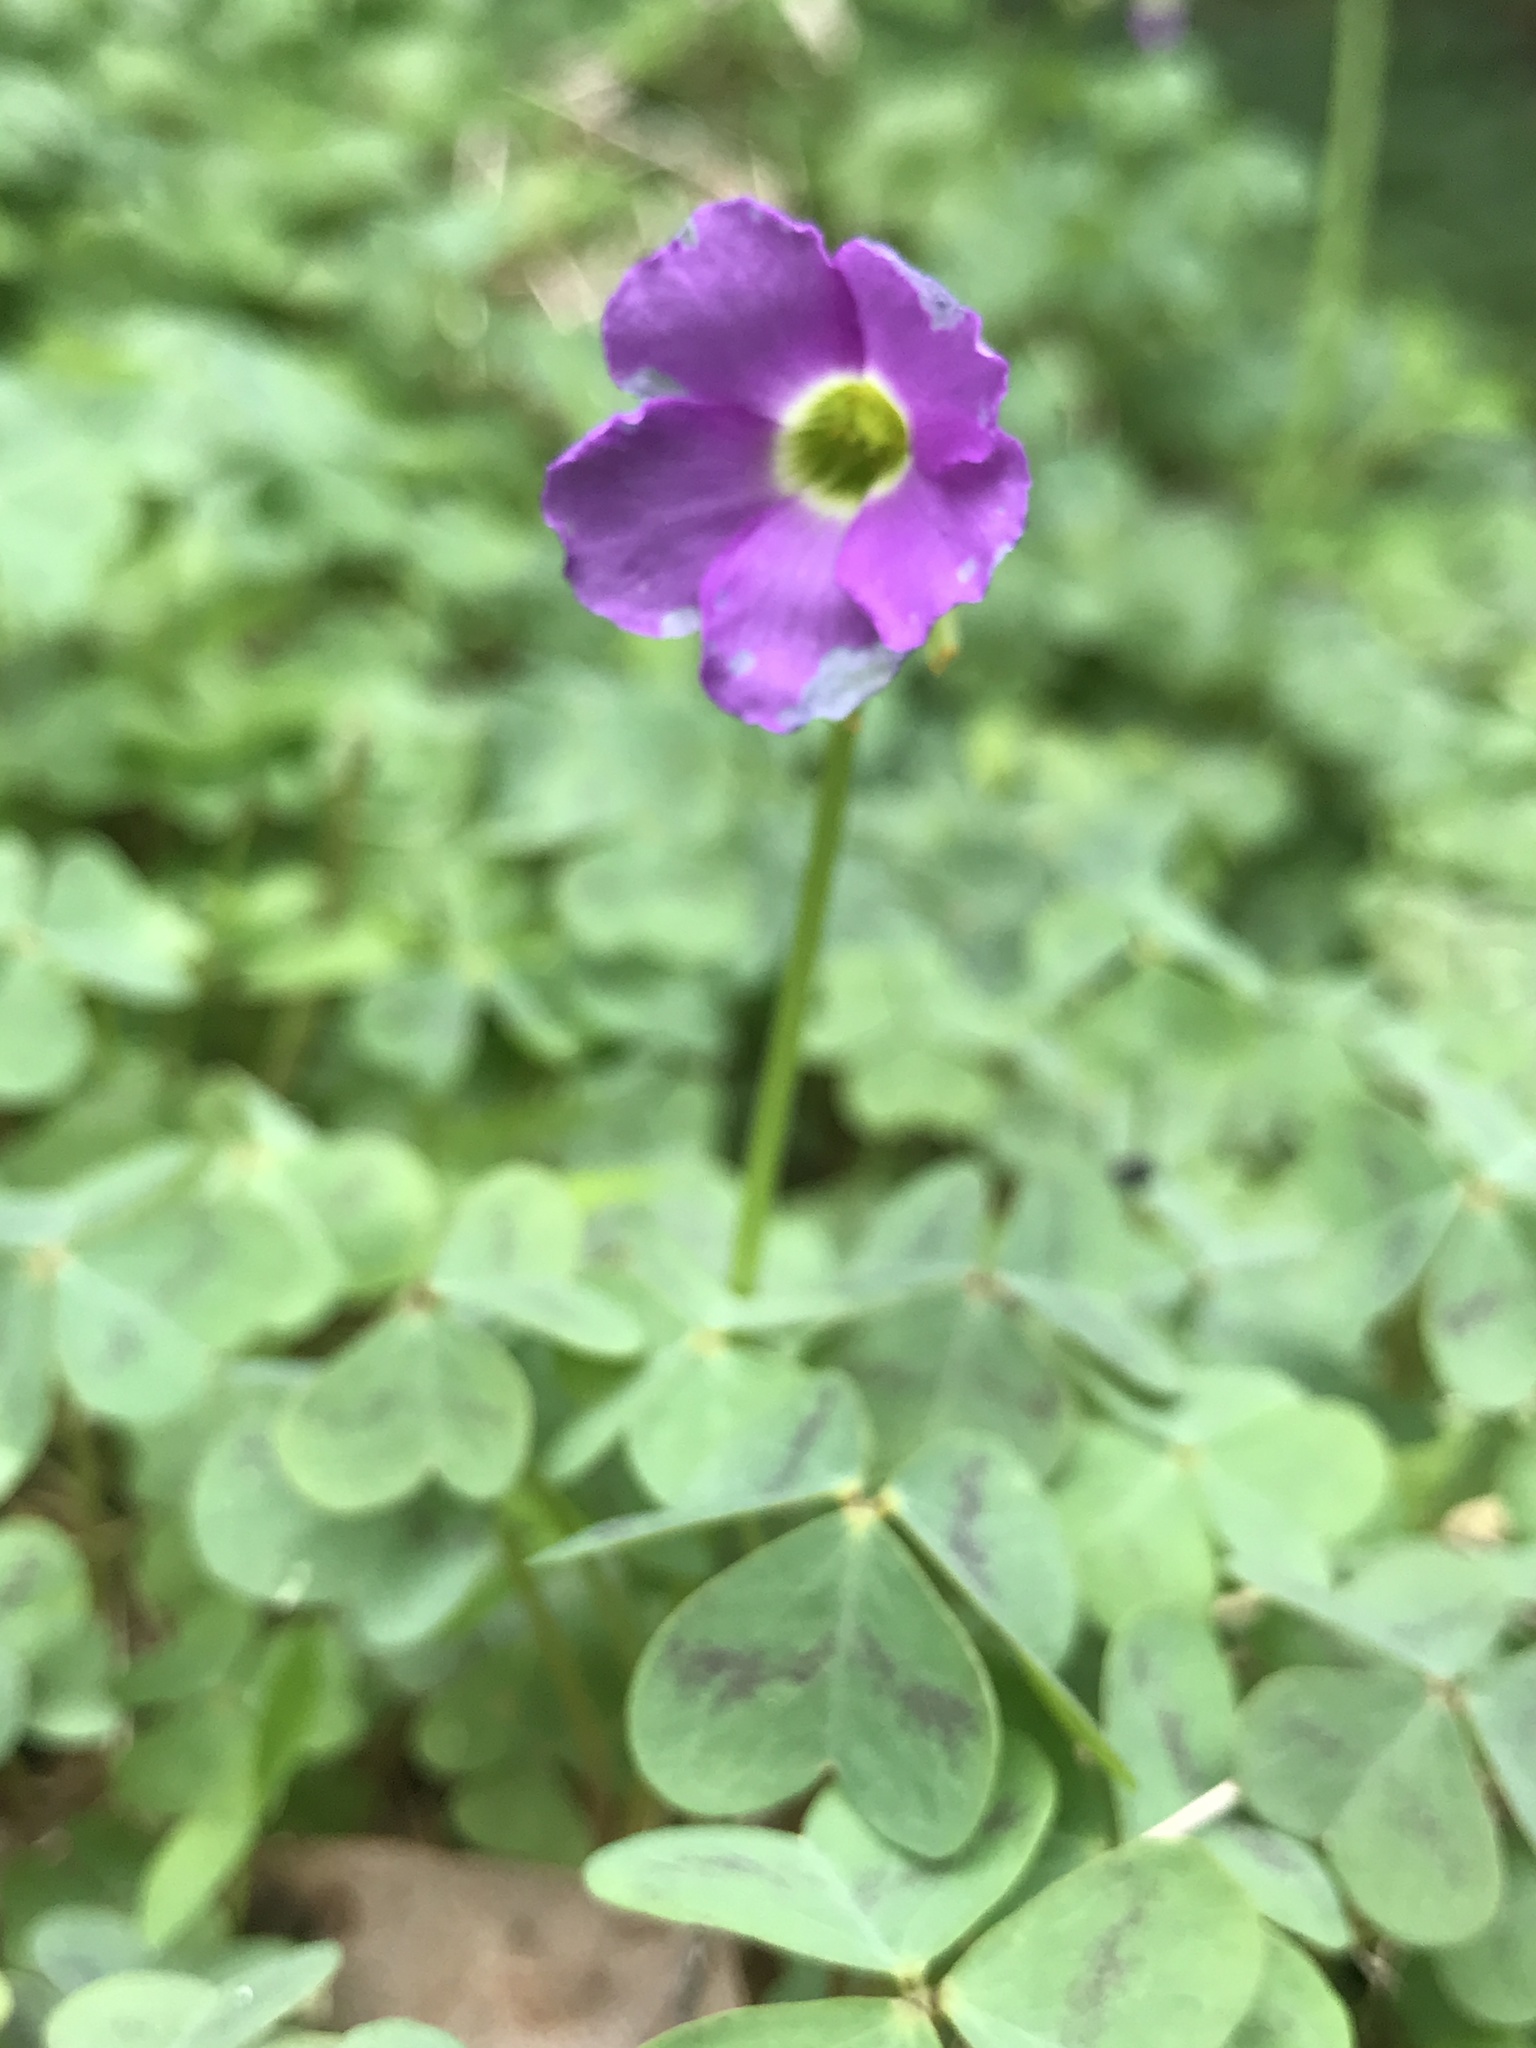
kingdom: Plantae
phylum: Tracheophyta
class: Magnoliopsida
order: Oxalidales
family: Oxalidaceae
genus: Oxalis
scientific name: Oxalis violacea
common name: Violet wood-sorrel
